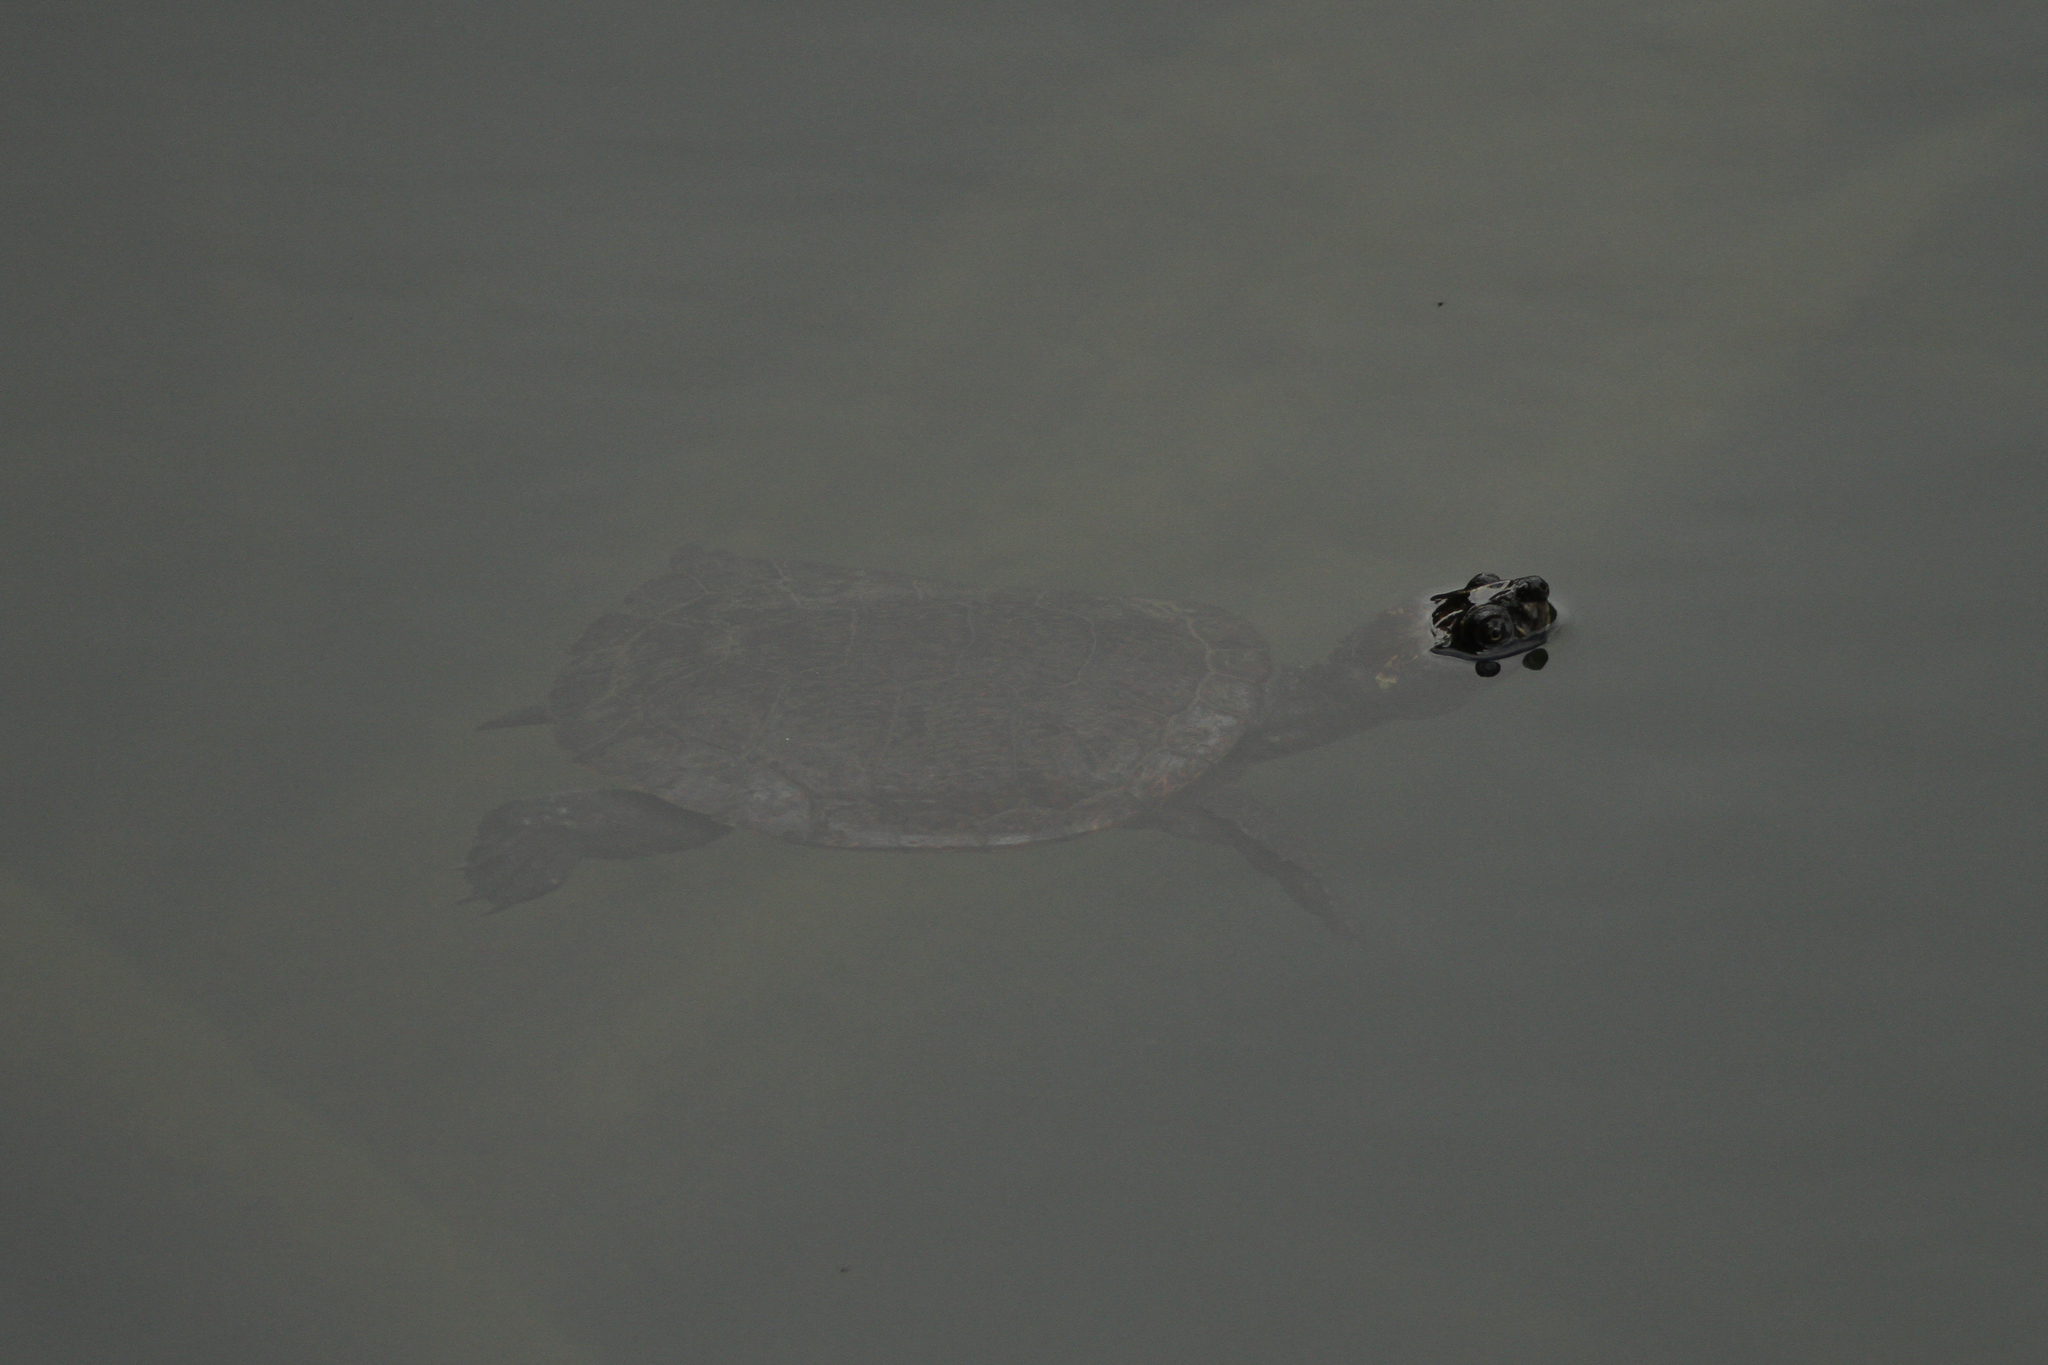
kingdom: Animalia
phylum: Chordata
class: Testudines
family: Chelidae
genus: Myuchelys
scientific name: Myuchelys latisternum
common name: Serrated snapping turtle
